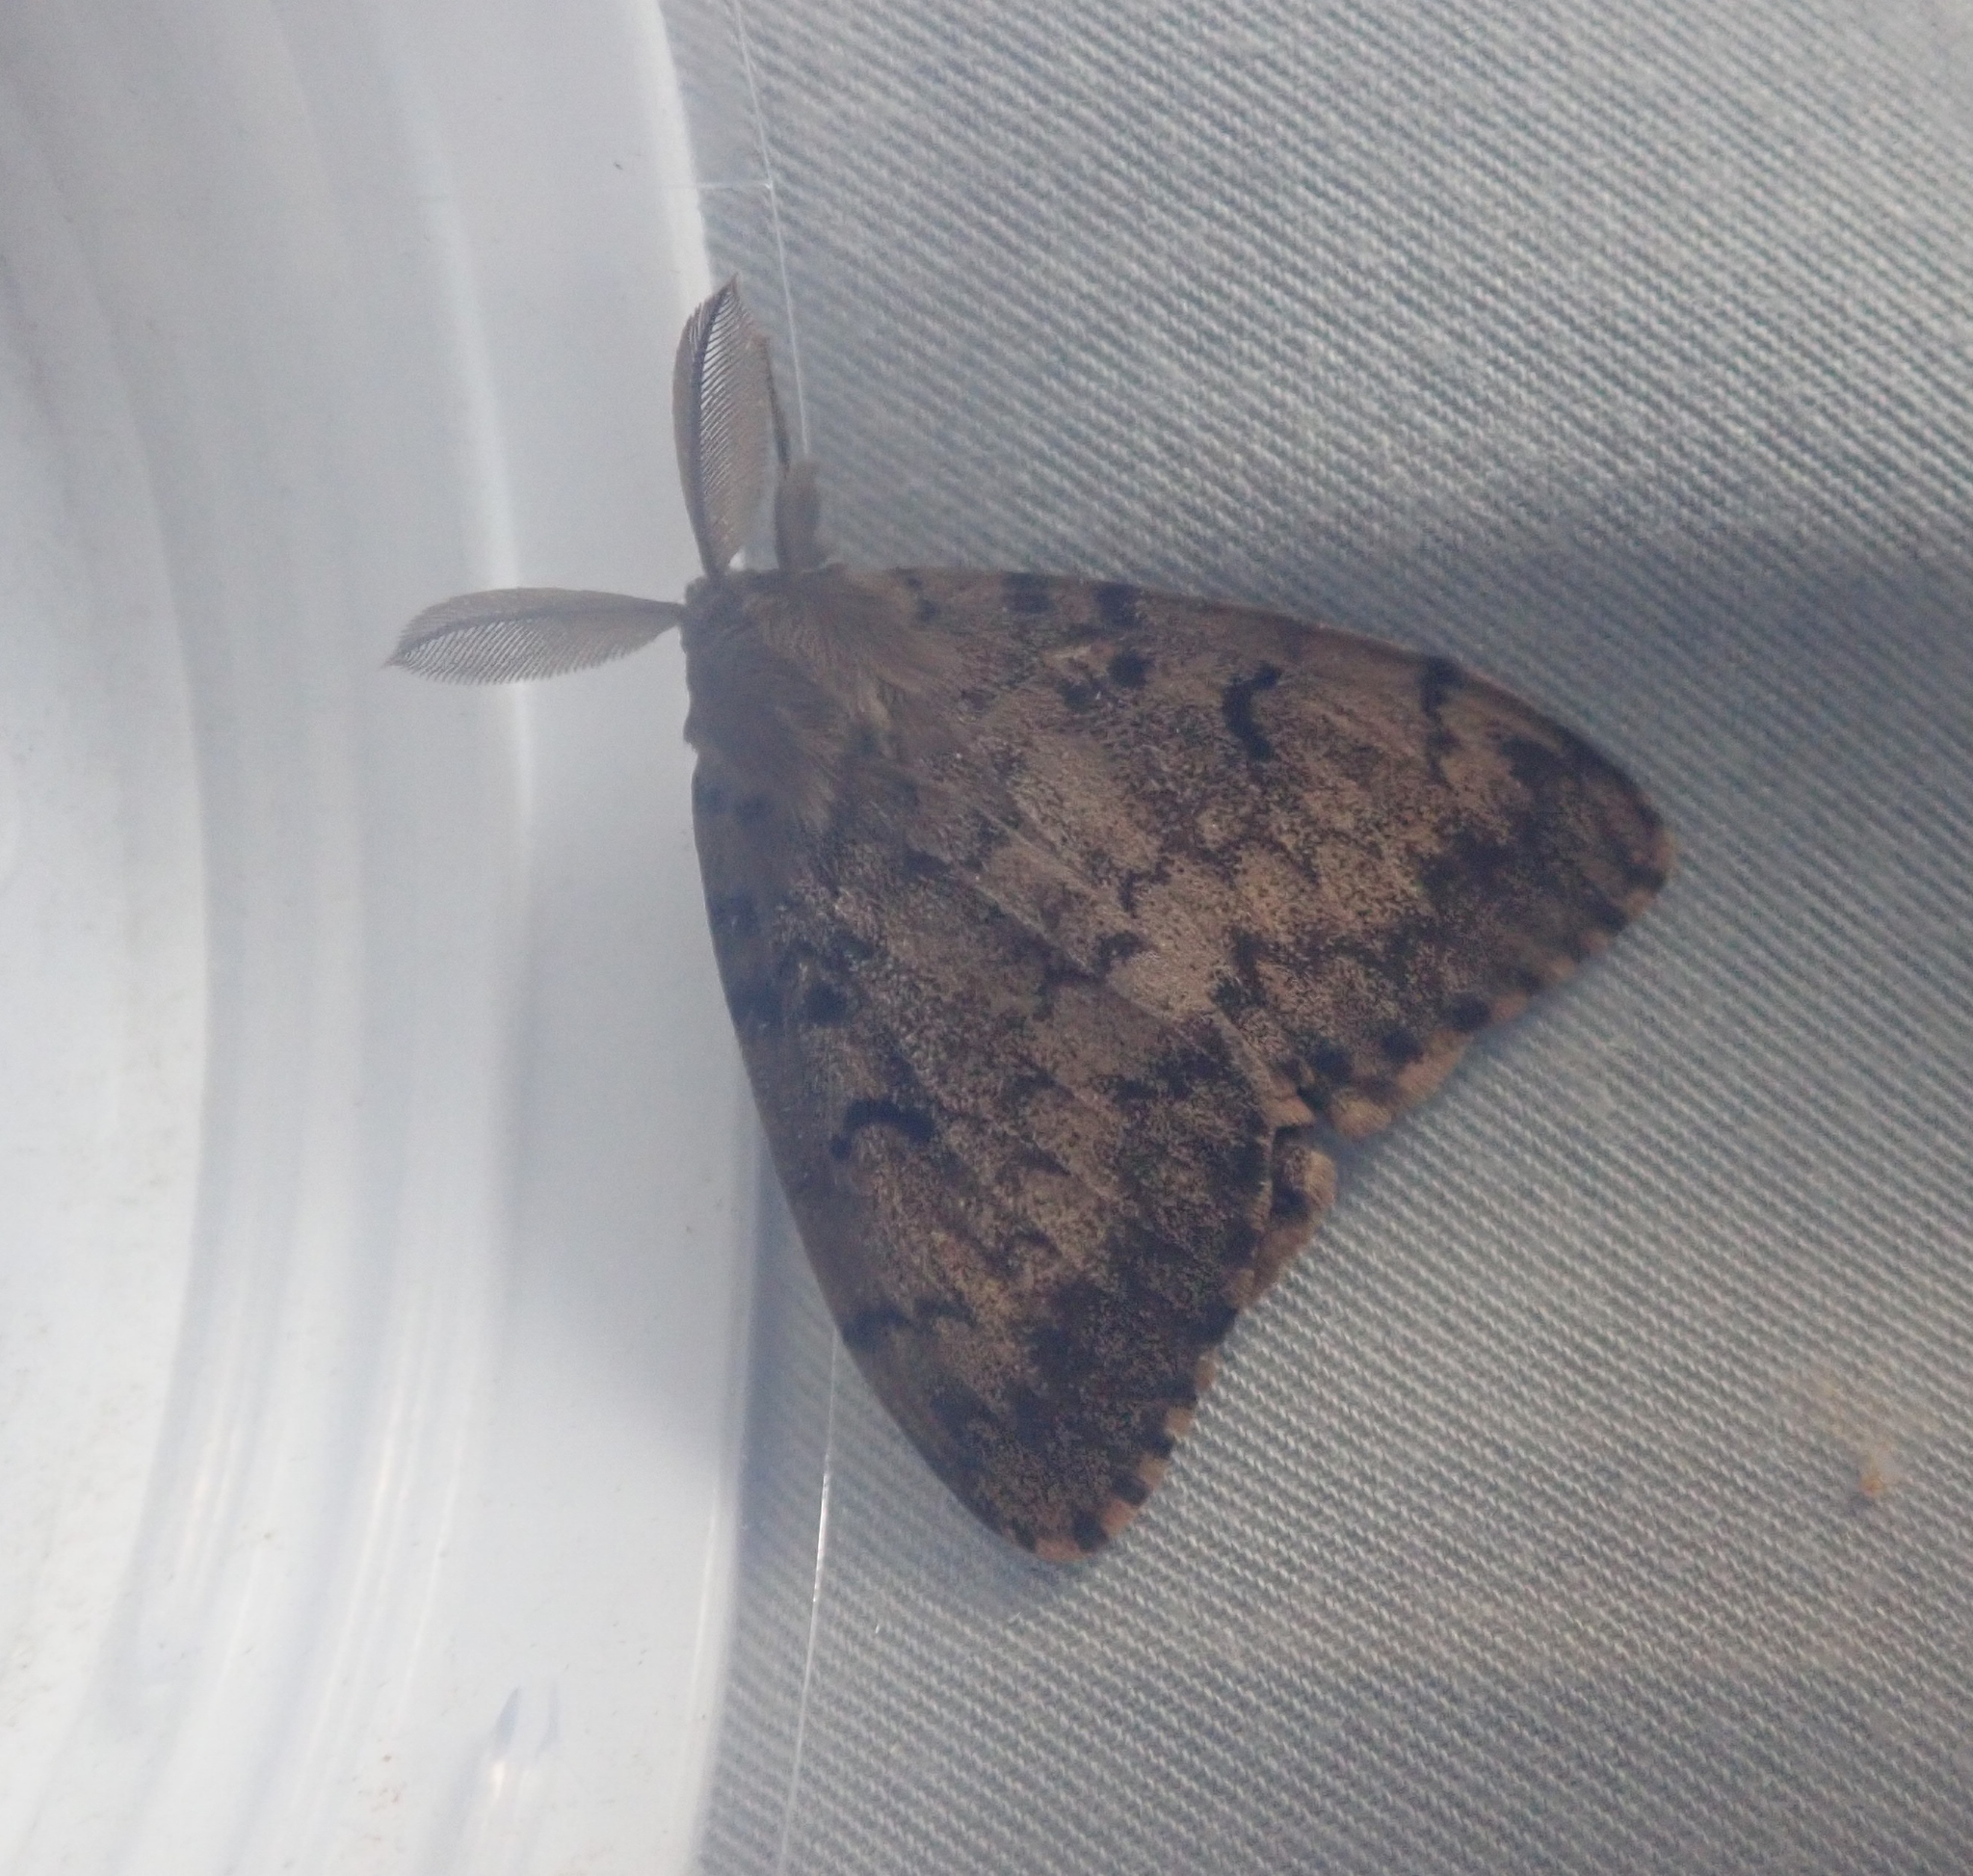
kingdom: Animalia
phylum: Arthropoda
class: Insecta
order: Lepidoptera
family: Erebidae
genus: Lymantria
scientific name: Lymantria dispar
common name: Gypsy moth
